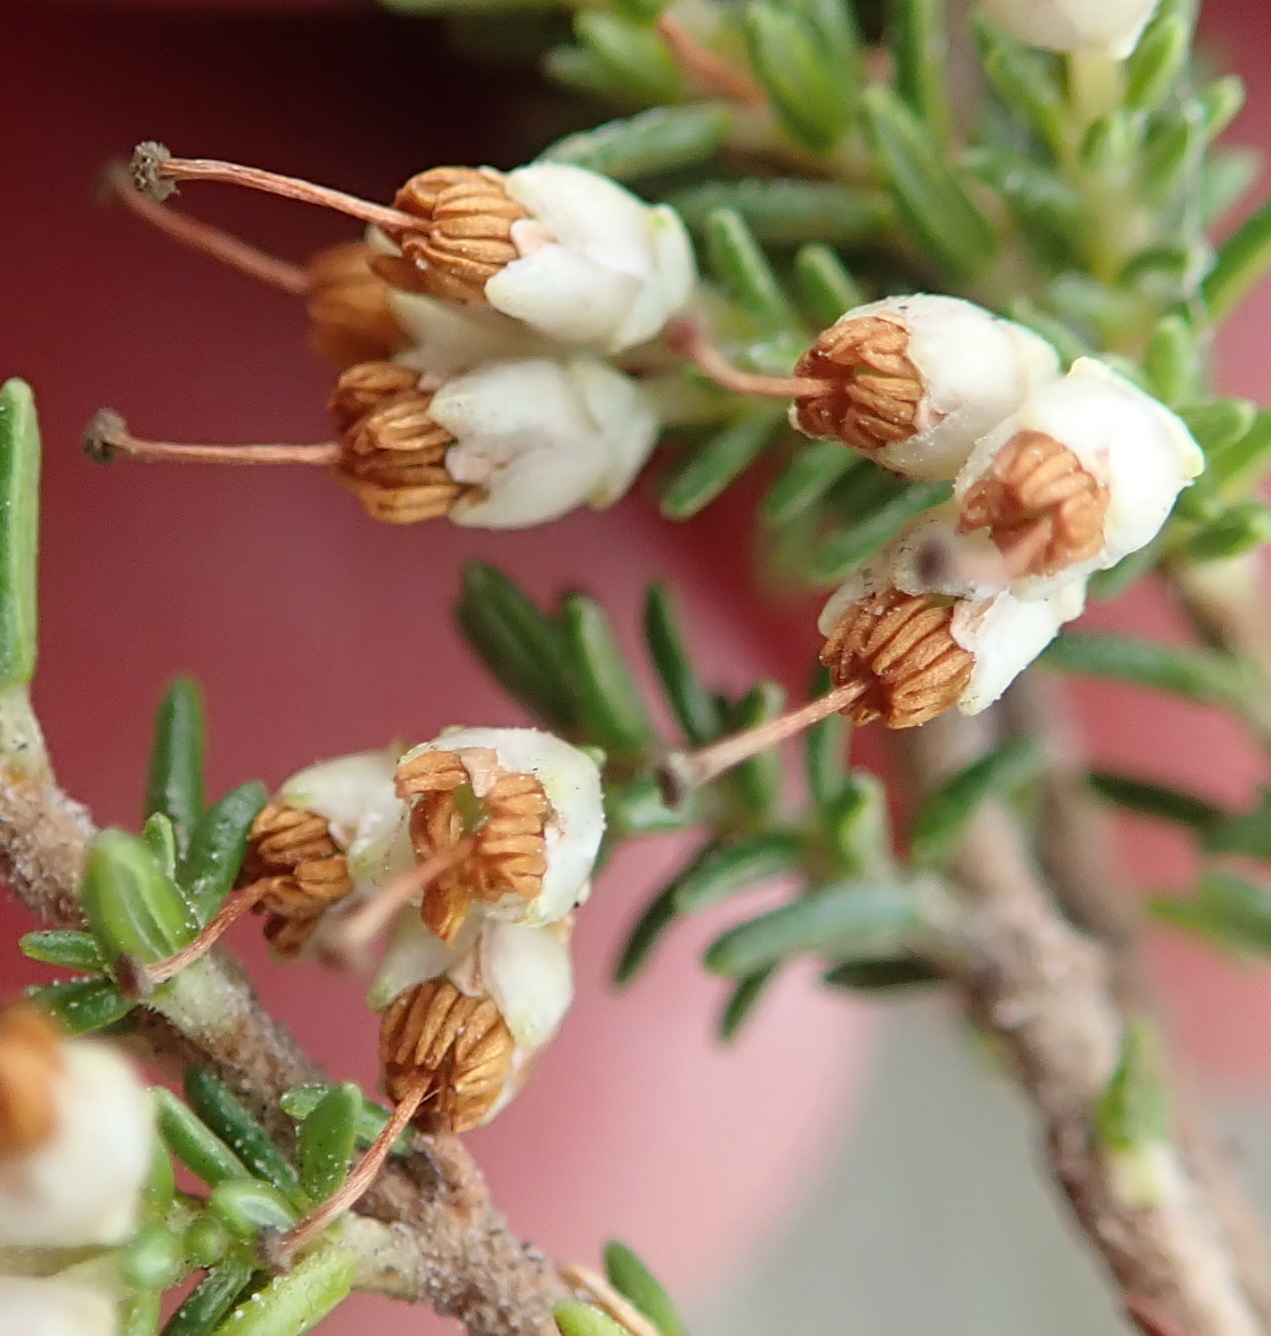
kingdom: Plantae
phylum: Tracheophyta
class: Magnoliopsida
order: Ericales
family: Ericaceae
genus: Erica
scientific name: Erica lasciva
